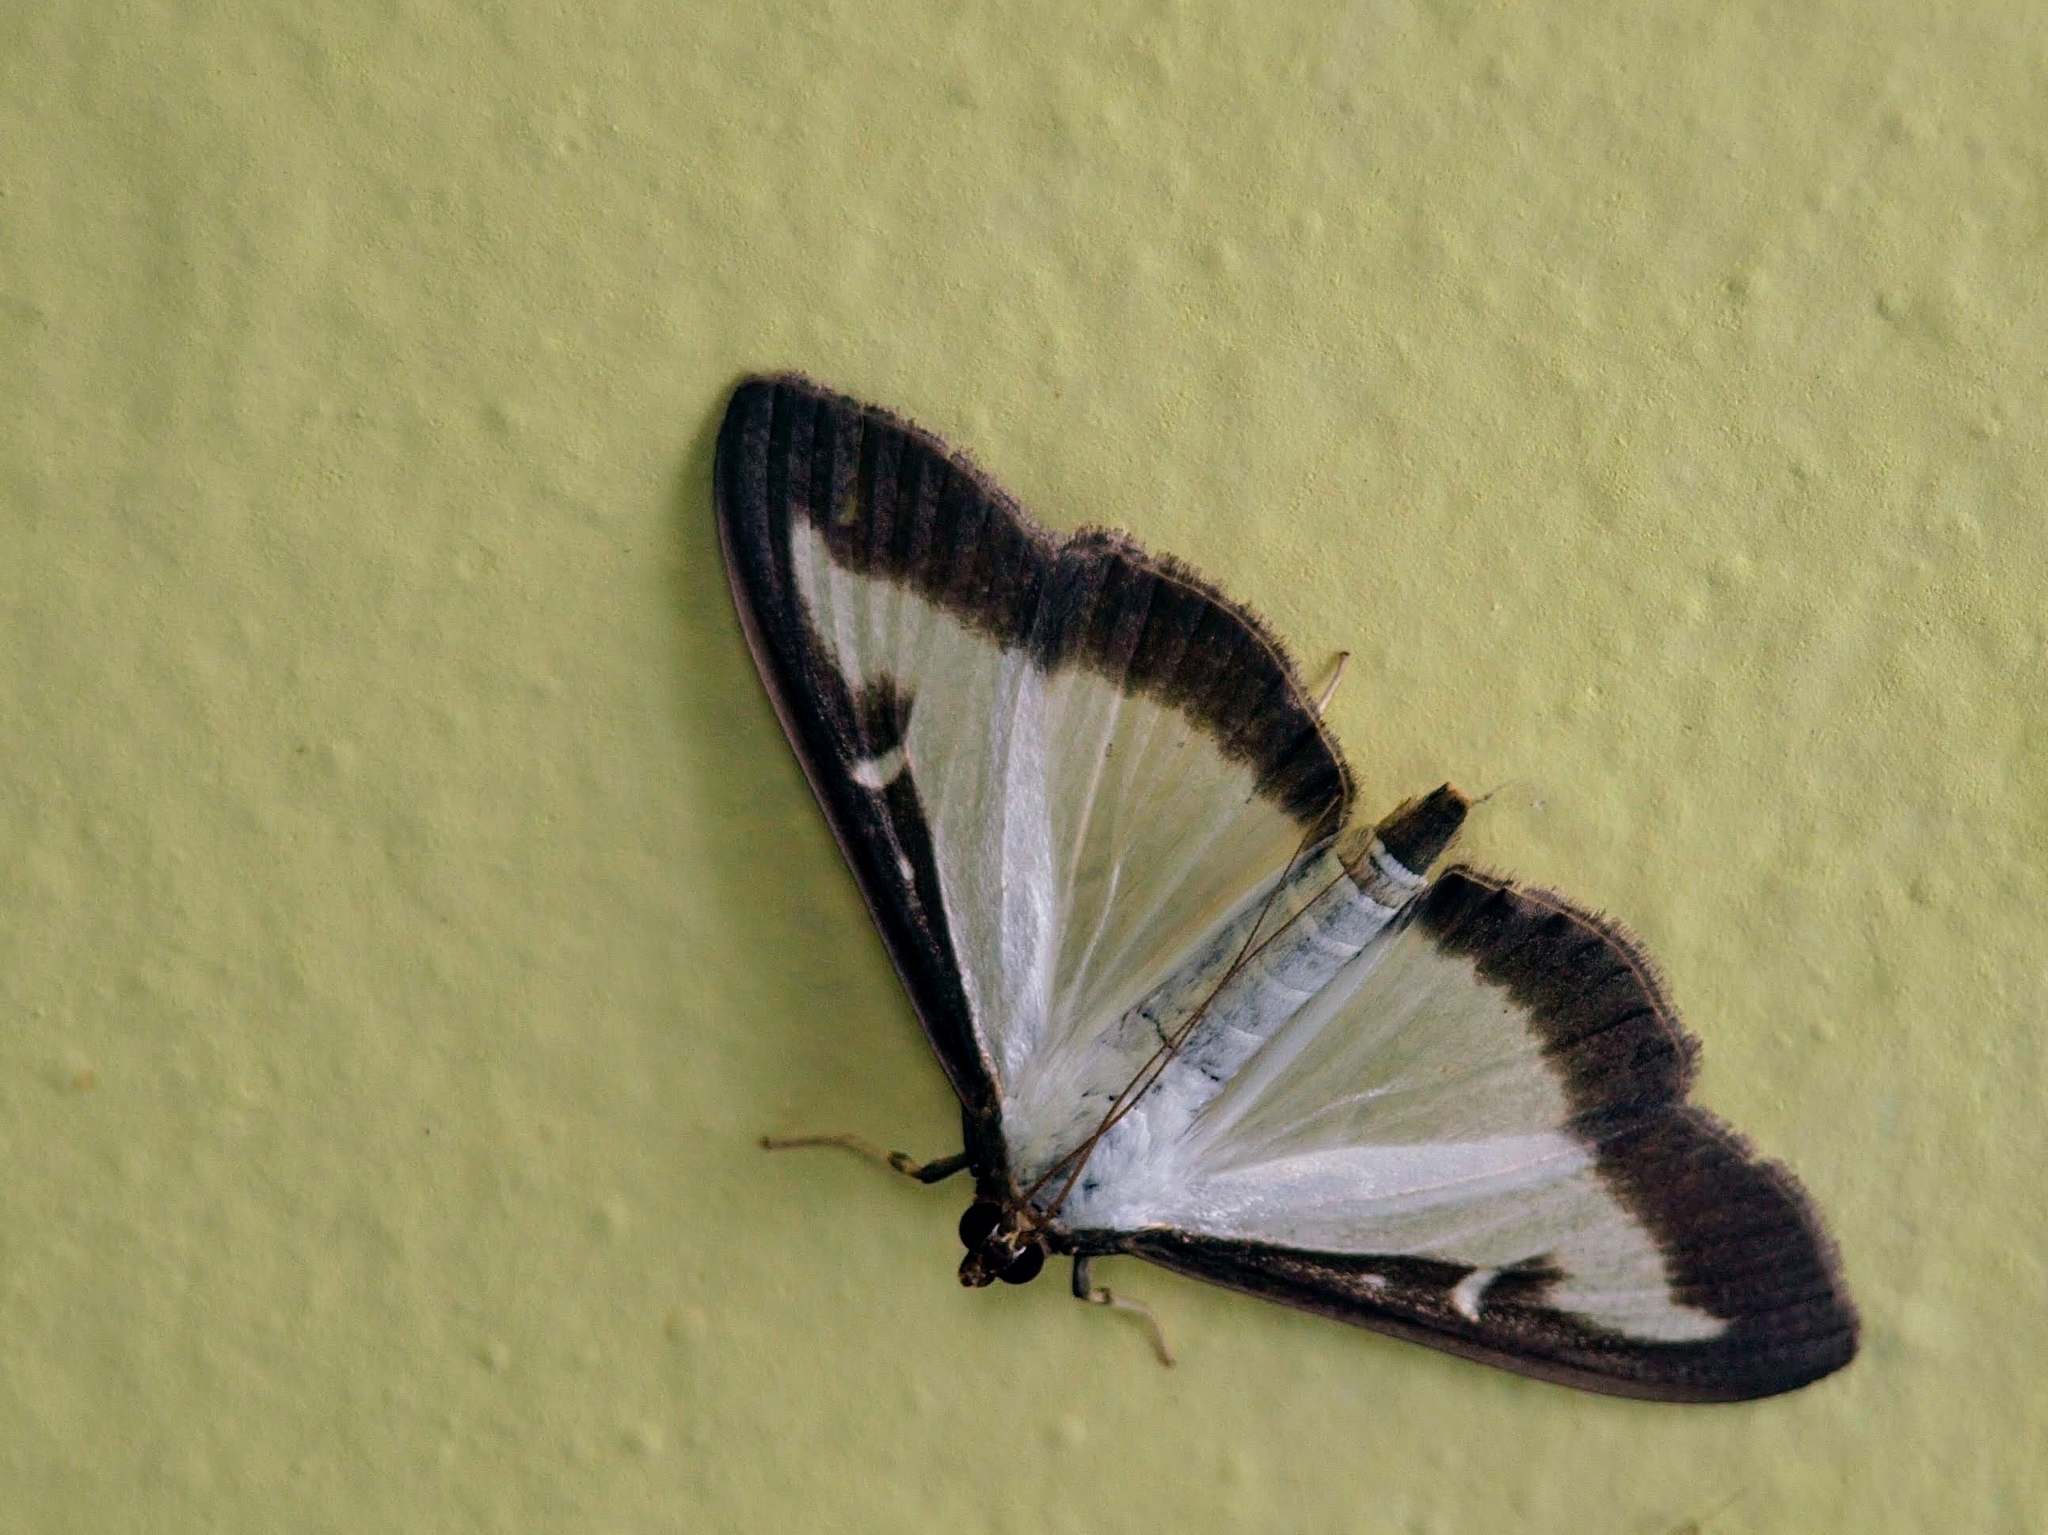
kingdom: Animalia
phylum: Arthropoda
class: Insecta
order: Lepidoptera
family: Crambidae
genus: Cydalima
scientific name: Cydalima perspectalis
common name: Box tree moth
